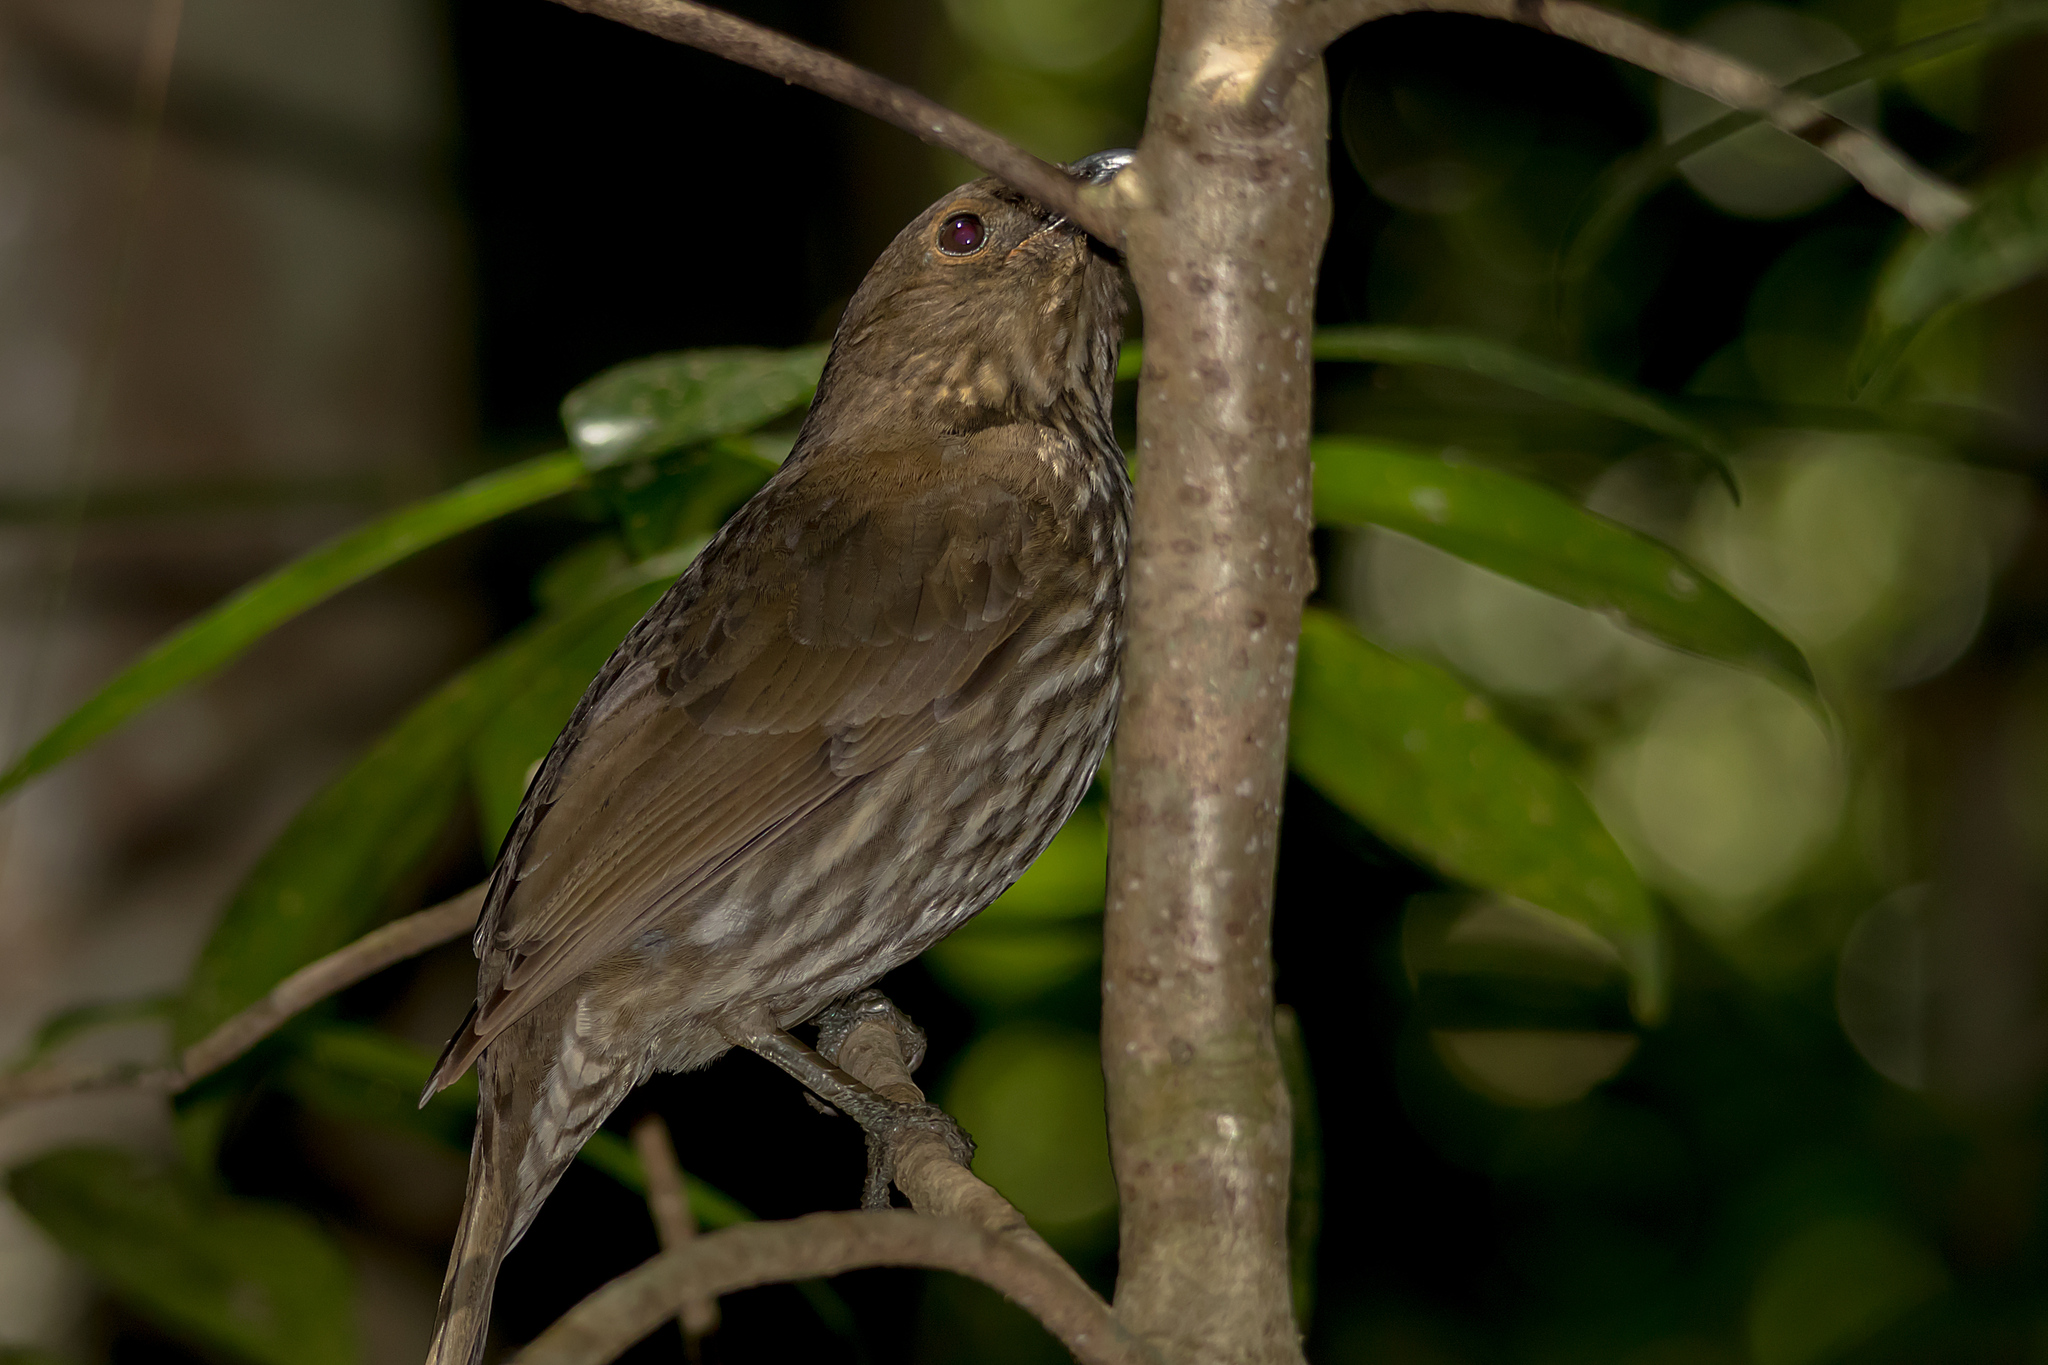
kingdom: Animalia
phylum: Chordata
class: Aves
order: Passeriformes
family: Ptilonorhynchidae
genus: Scenopoeetes
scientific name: Scenopoeetes dentirostris
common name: Tooth-billed bowerbird
